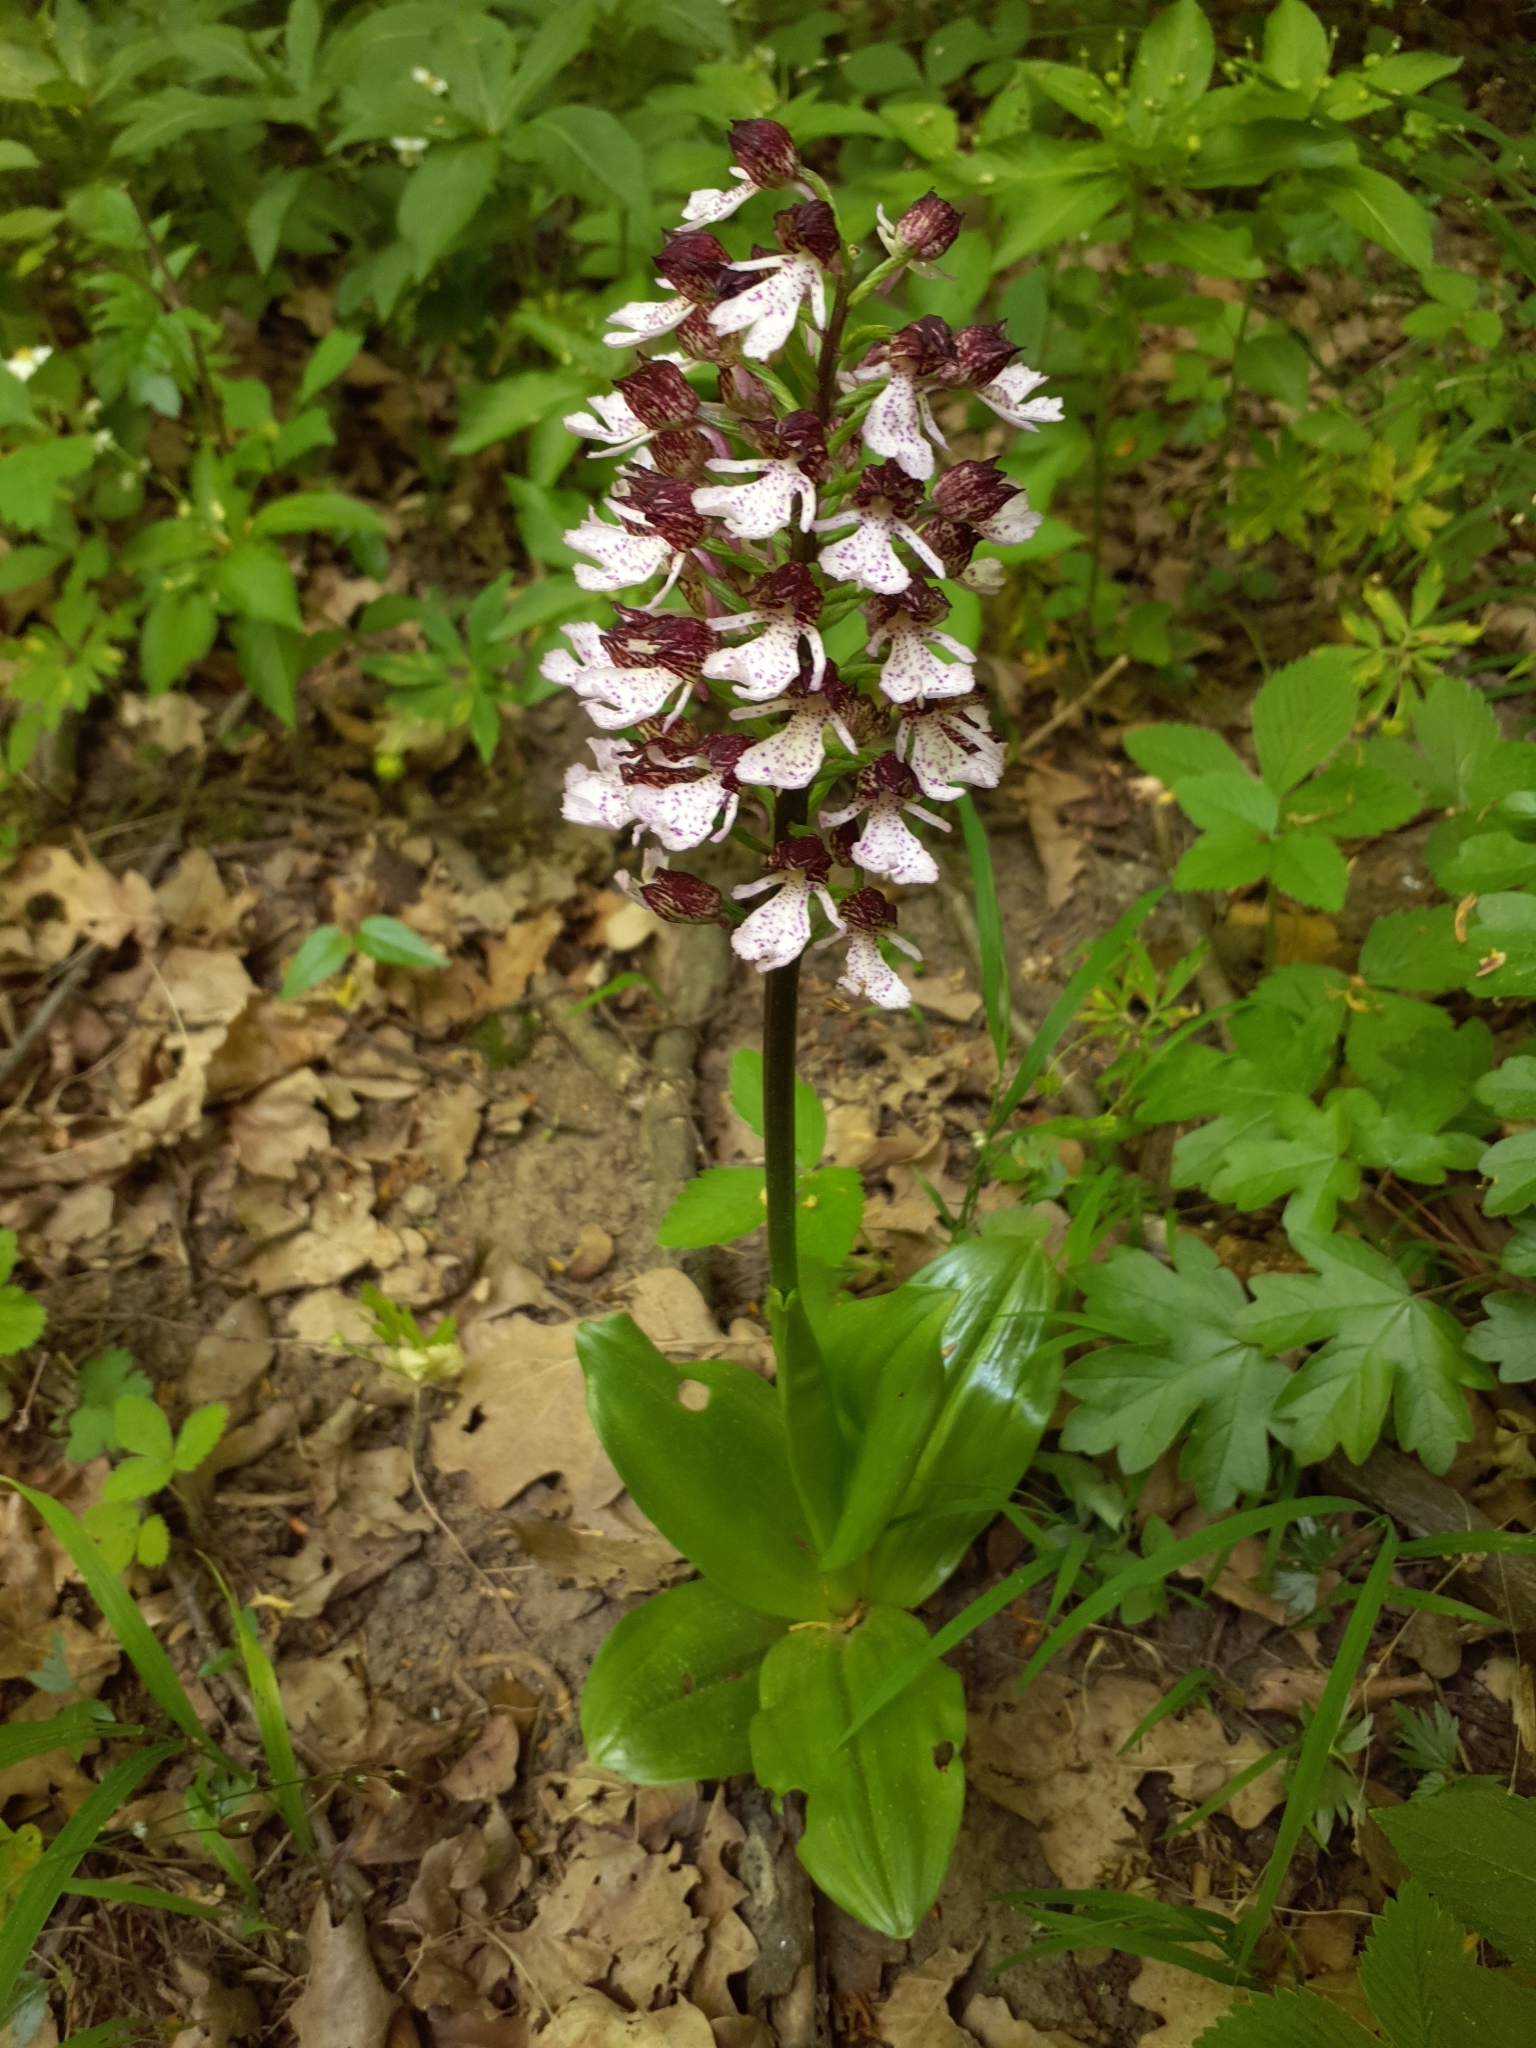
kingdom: Plantae
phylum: Tracheophyta
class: Liliopsida
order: Asparagales
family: Orchidaceae
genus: Orchis
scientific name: Orchis purpurea
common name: Lady orchid
